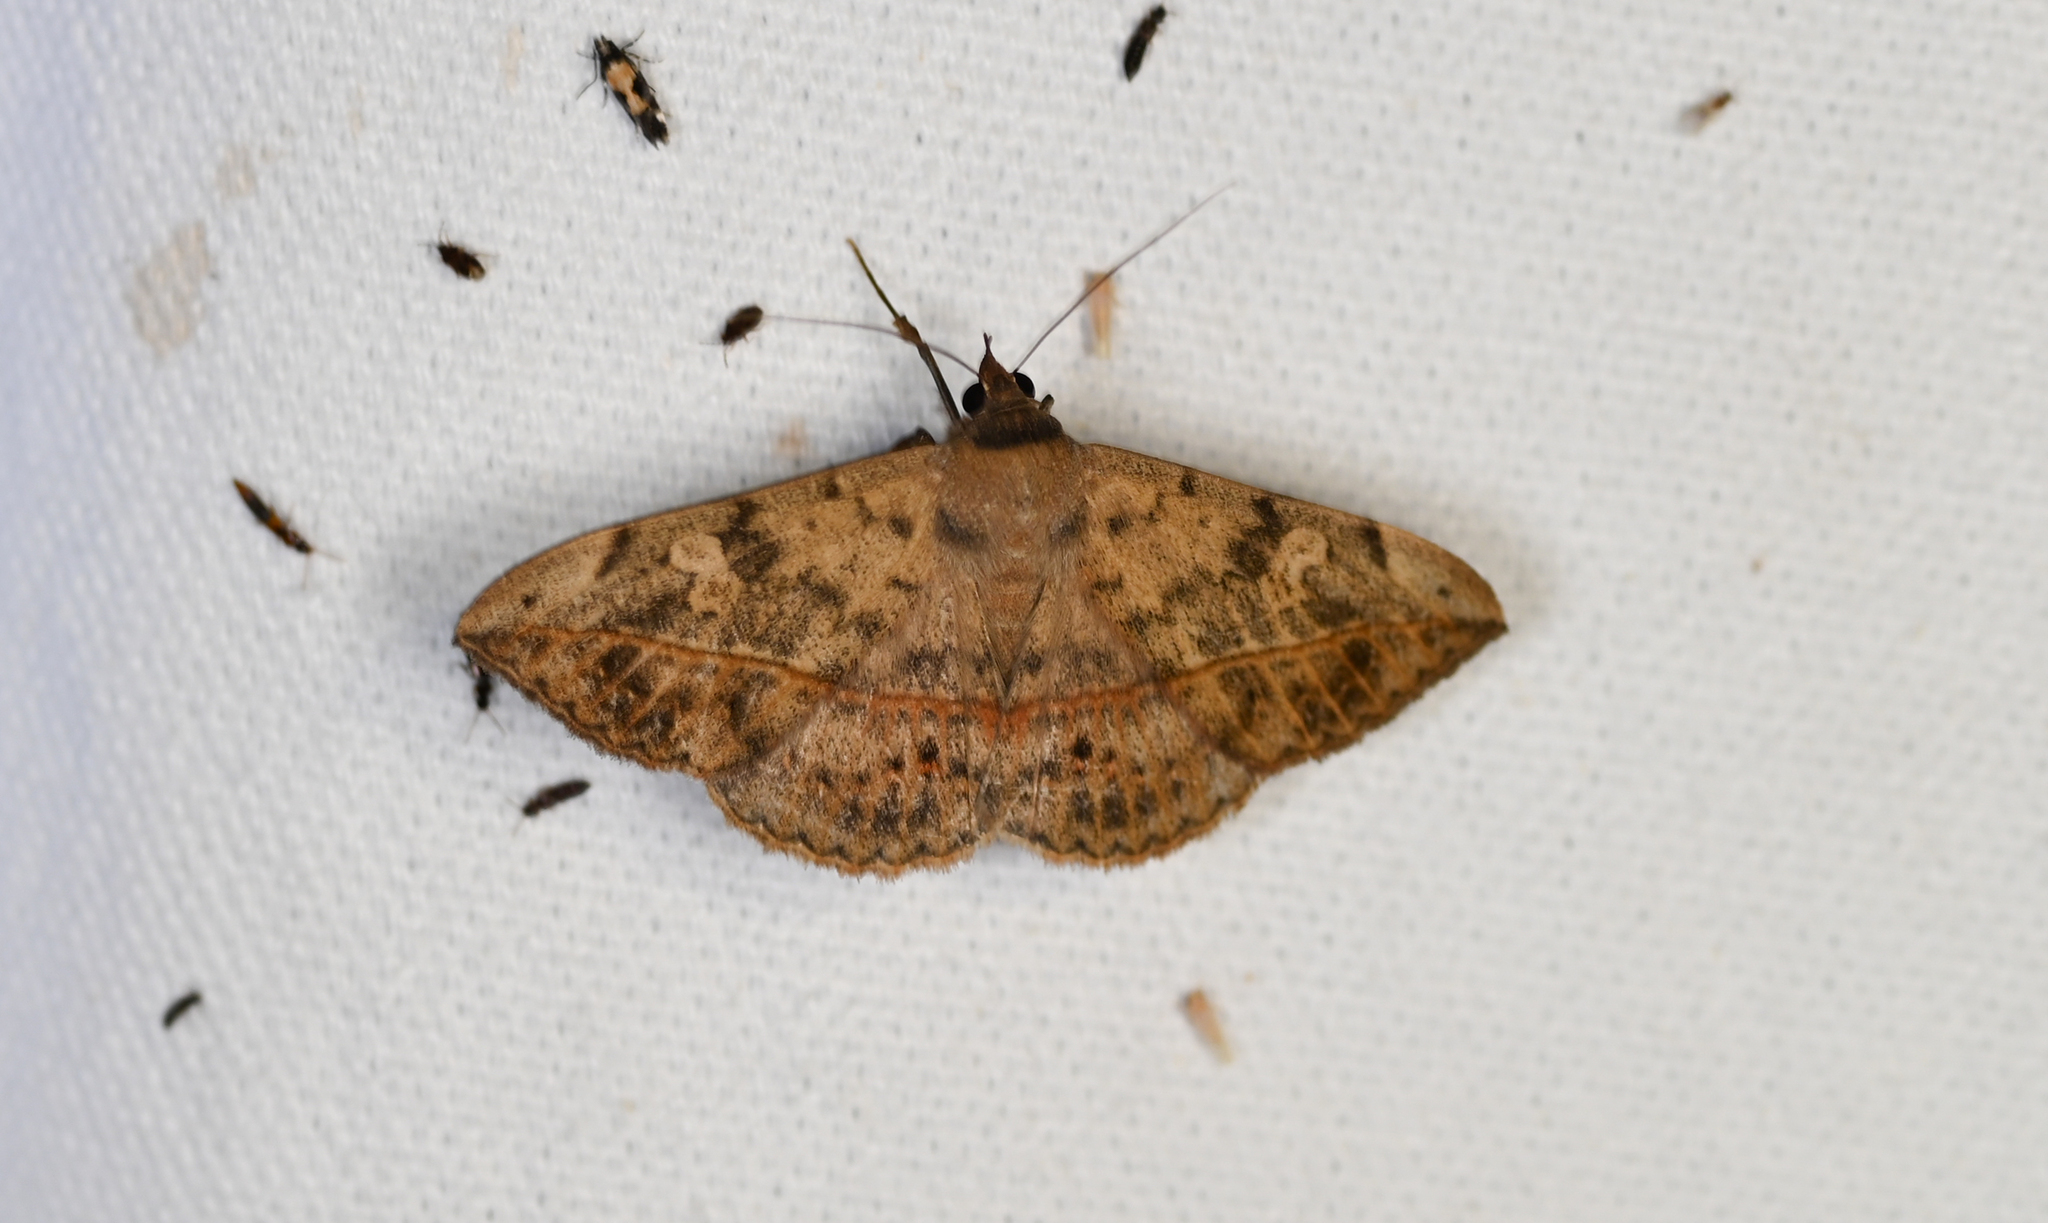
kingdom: Animalia
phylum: Arthropoda
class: Insecta
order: Lepidoptera
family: Erebidae
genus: Anticarsia
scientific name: Anticarsia gemmatalis
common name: Cutworm moth
